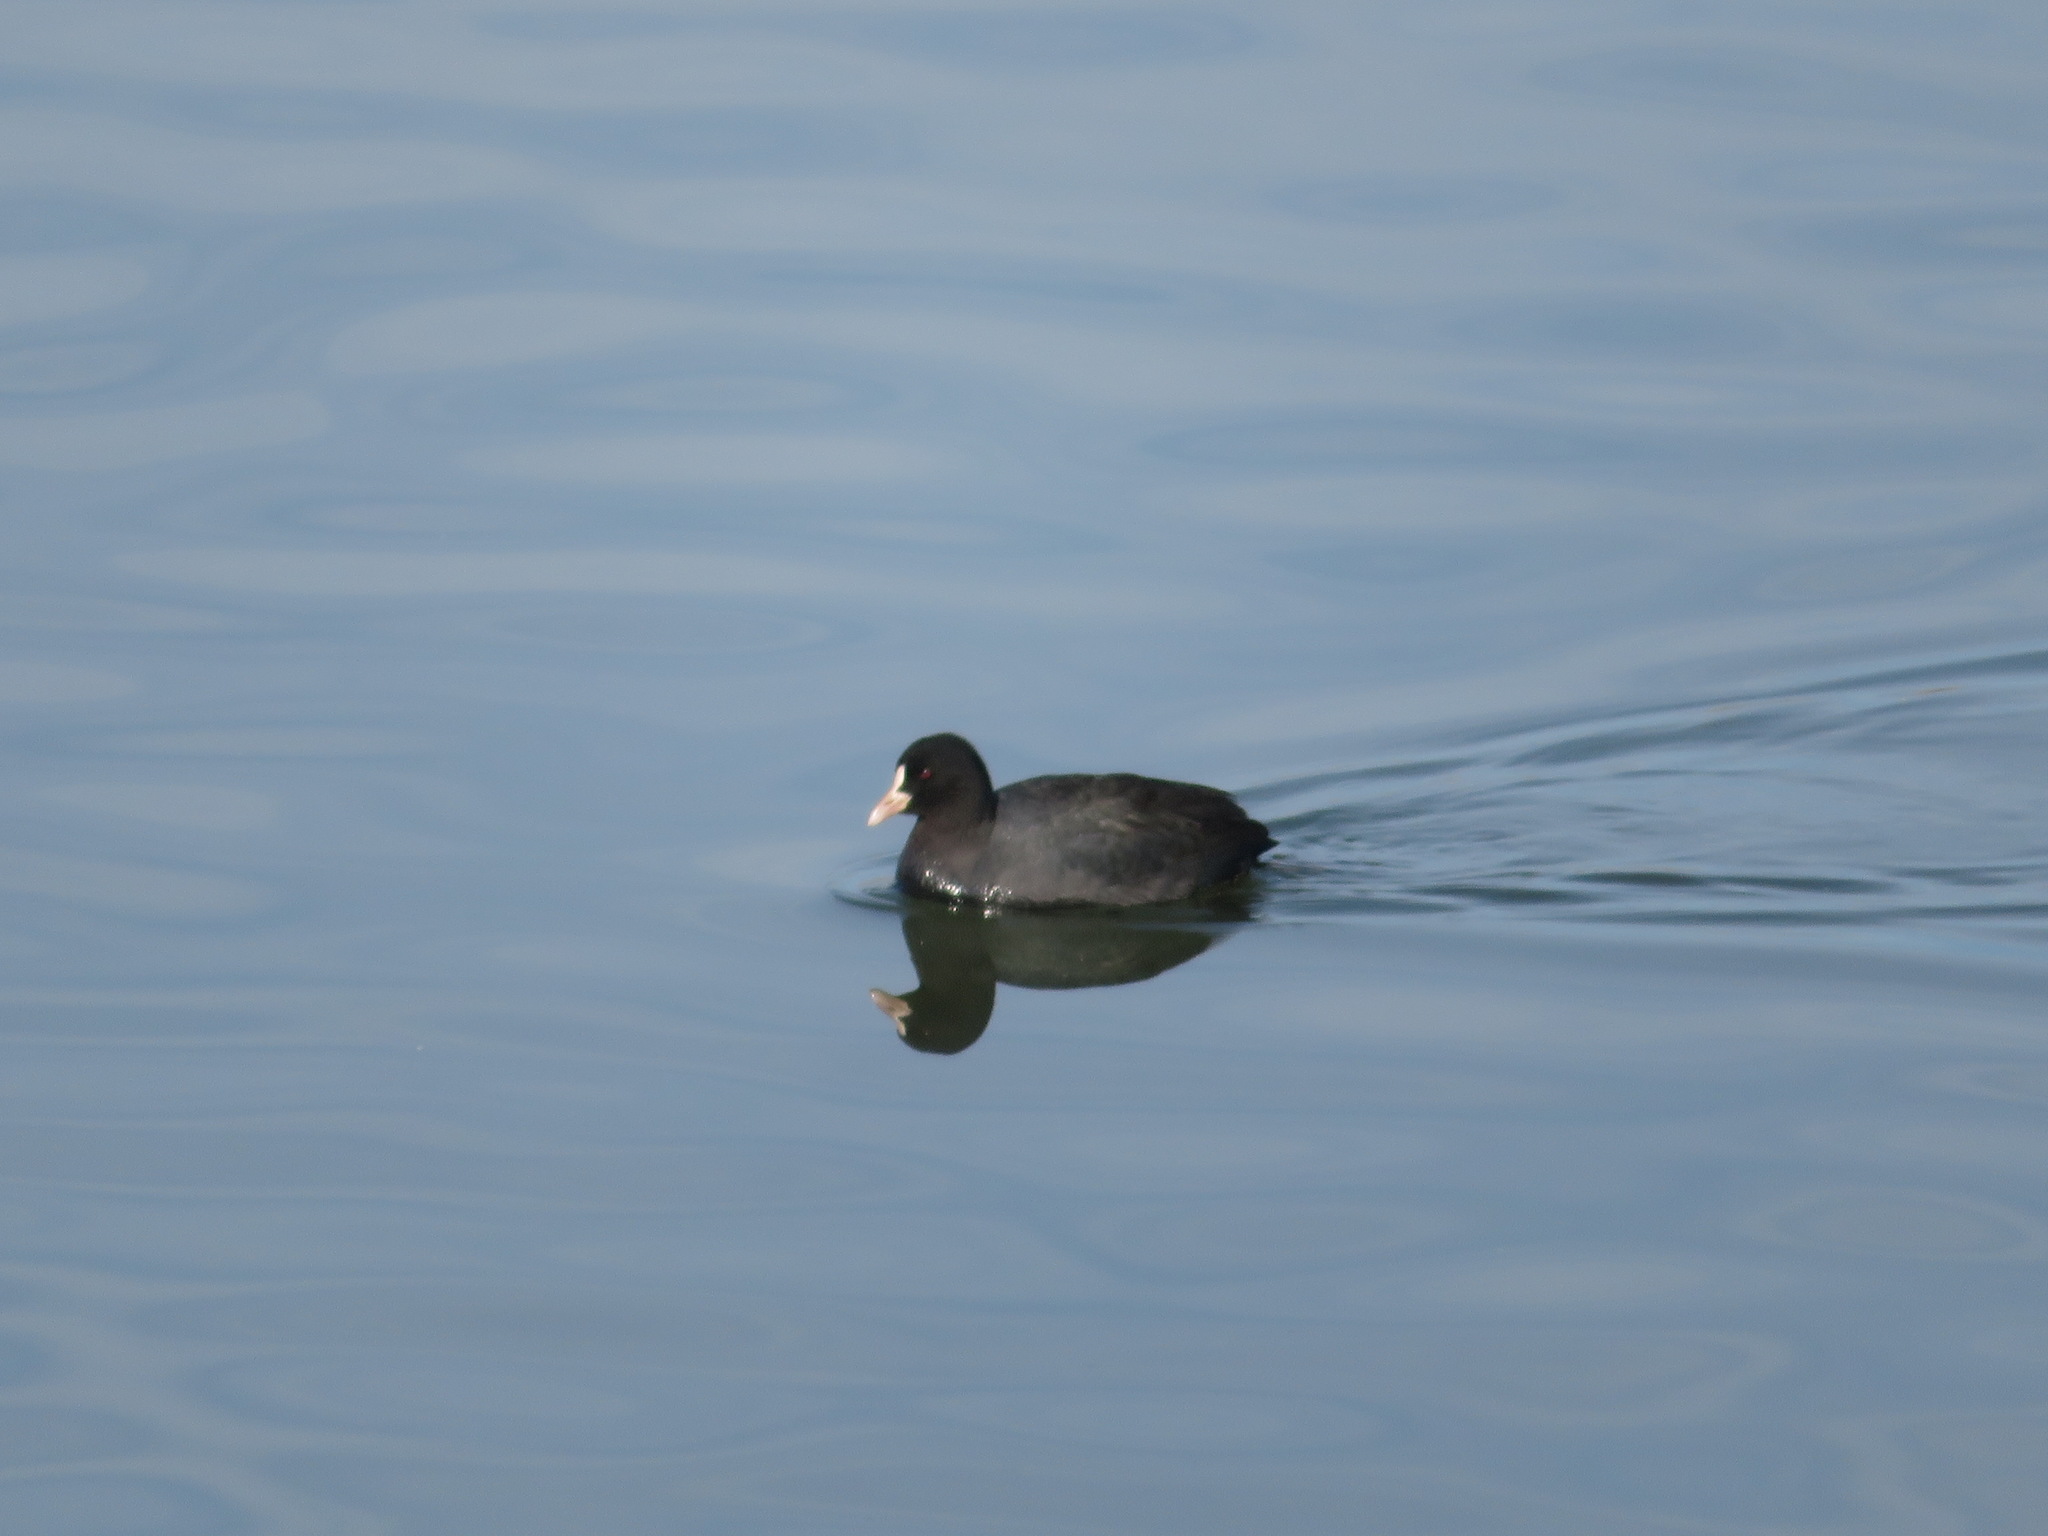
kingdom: Animalia
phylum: Chordata
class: Aves
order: Gruiformes
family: Rallidae
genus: Fulica
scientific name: Fulica atra
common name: Eurasian coot
